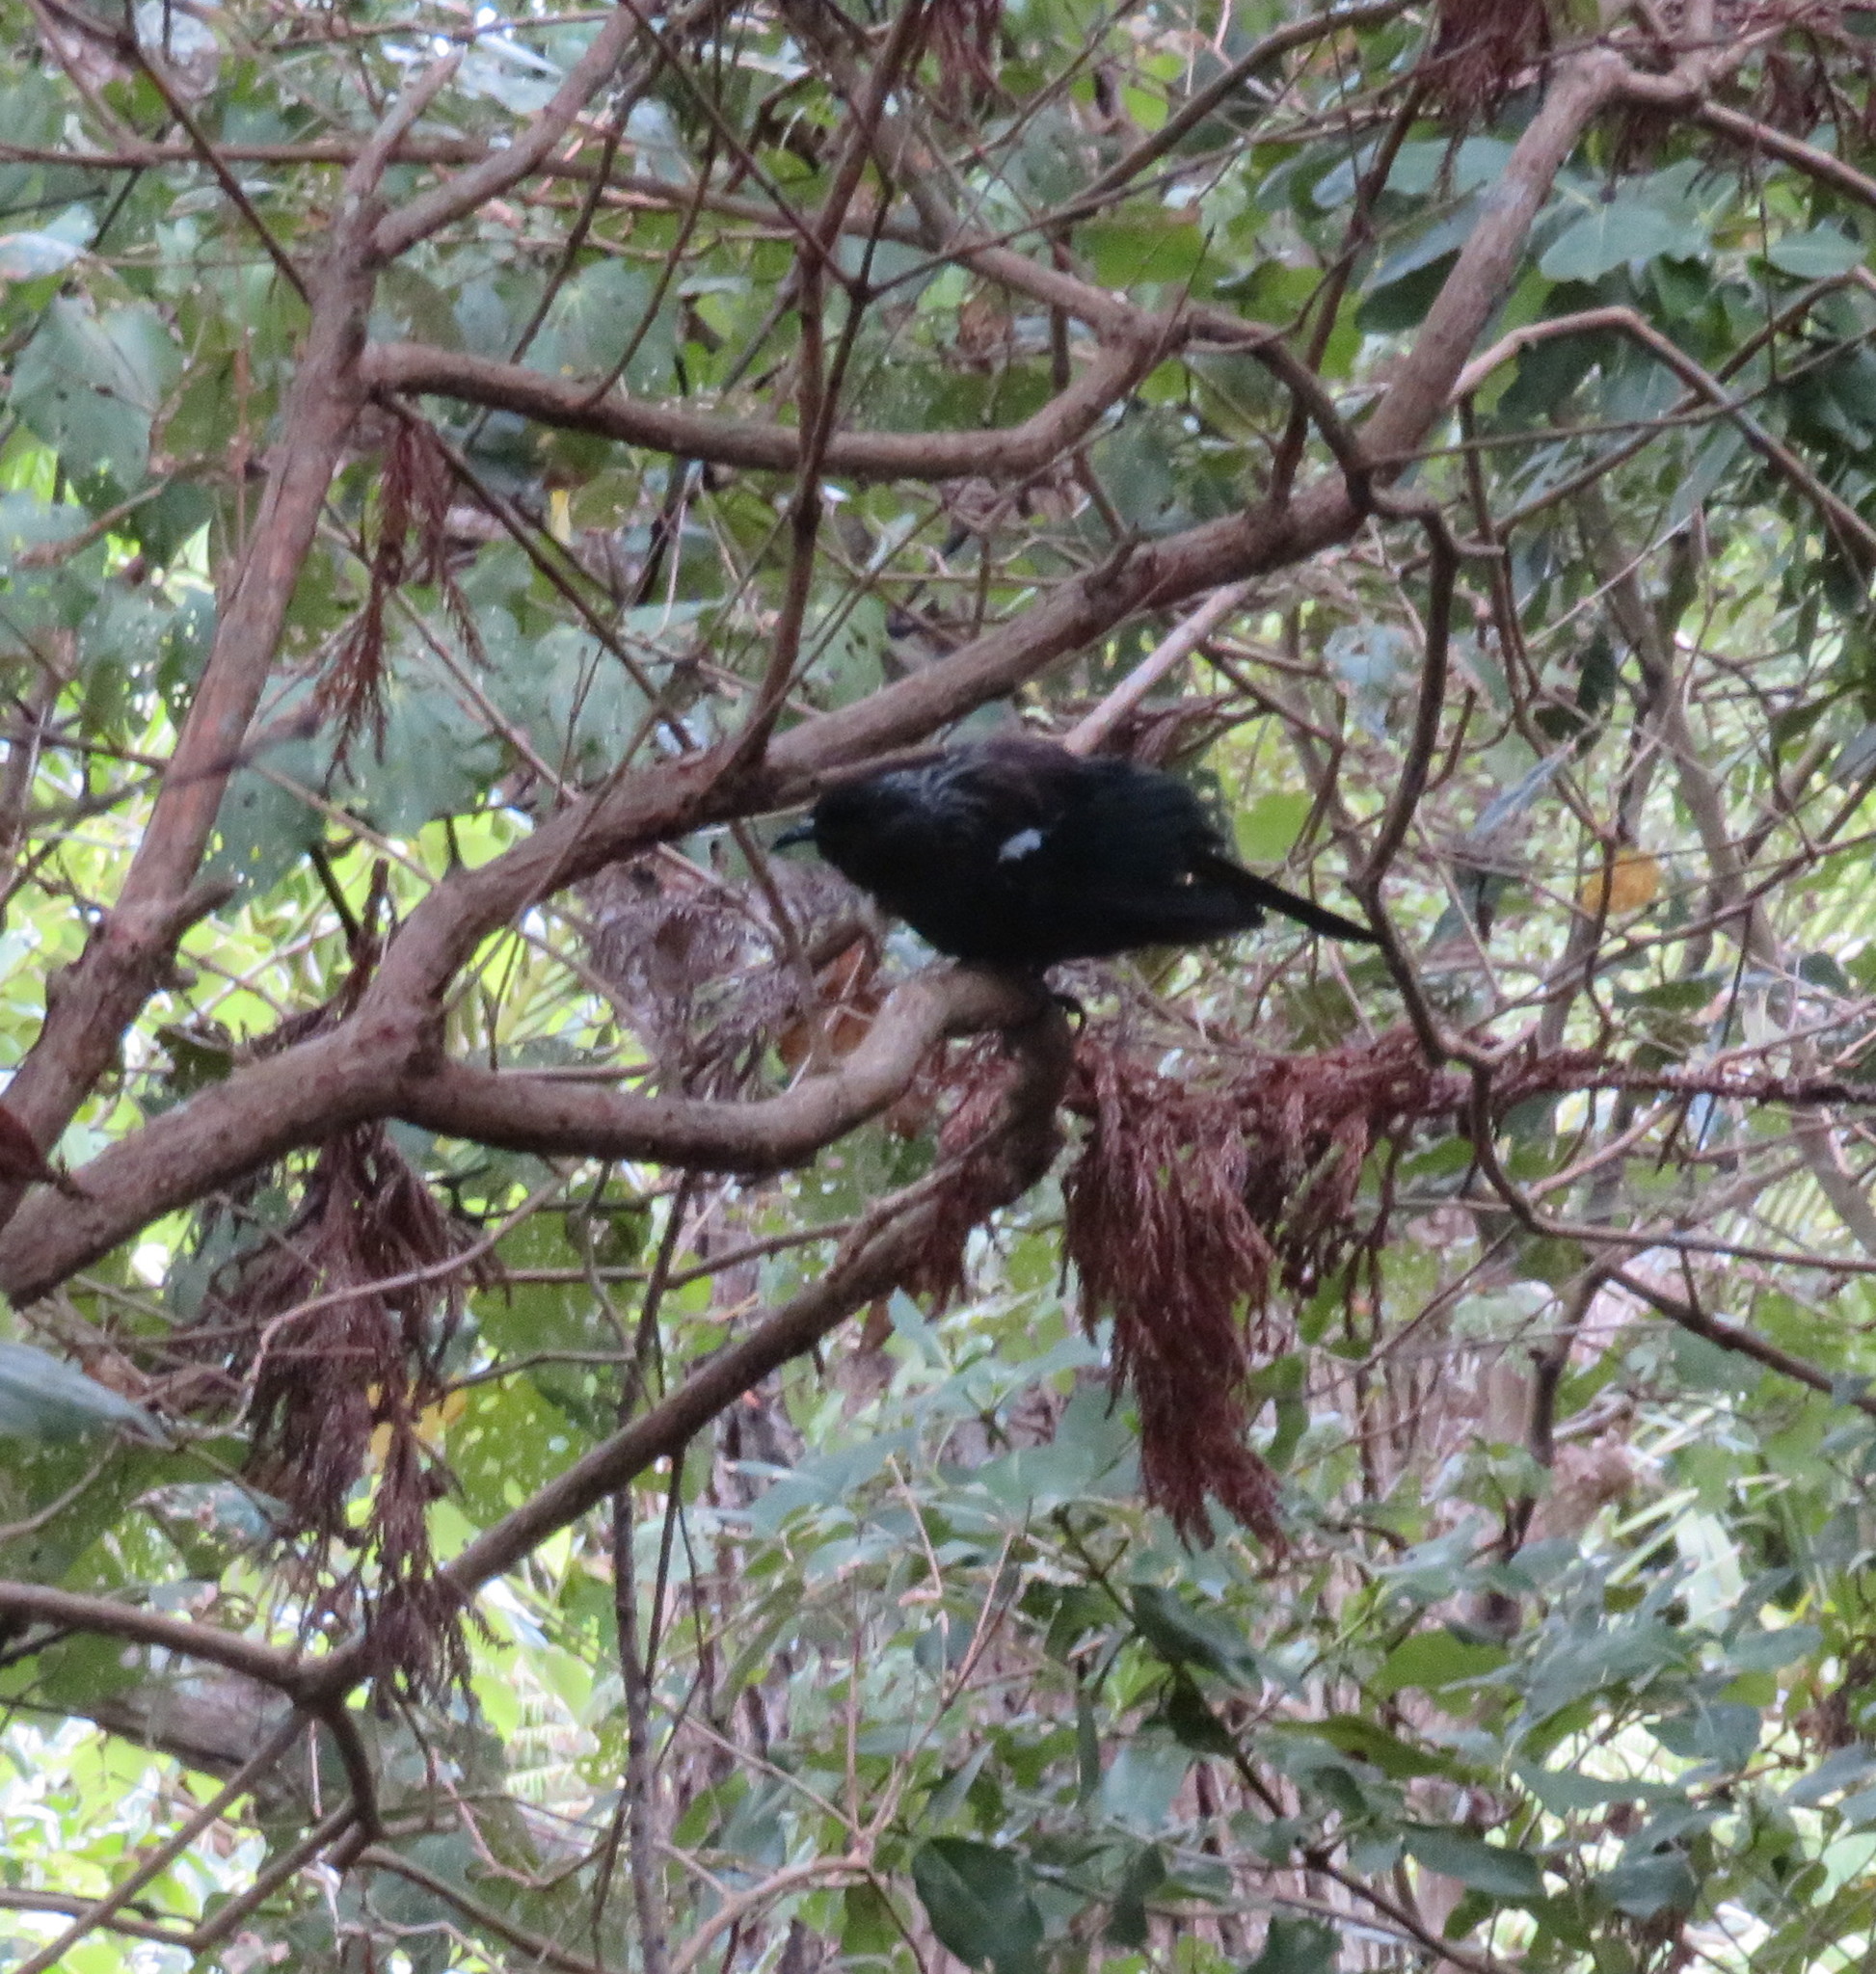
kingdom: Animalia
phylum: Chordata
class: Aves
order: Passeriformes
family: Meliphagidae
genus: Prosthemadera
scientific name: Prosthemadera novaeseelandiae
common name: Tui
